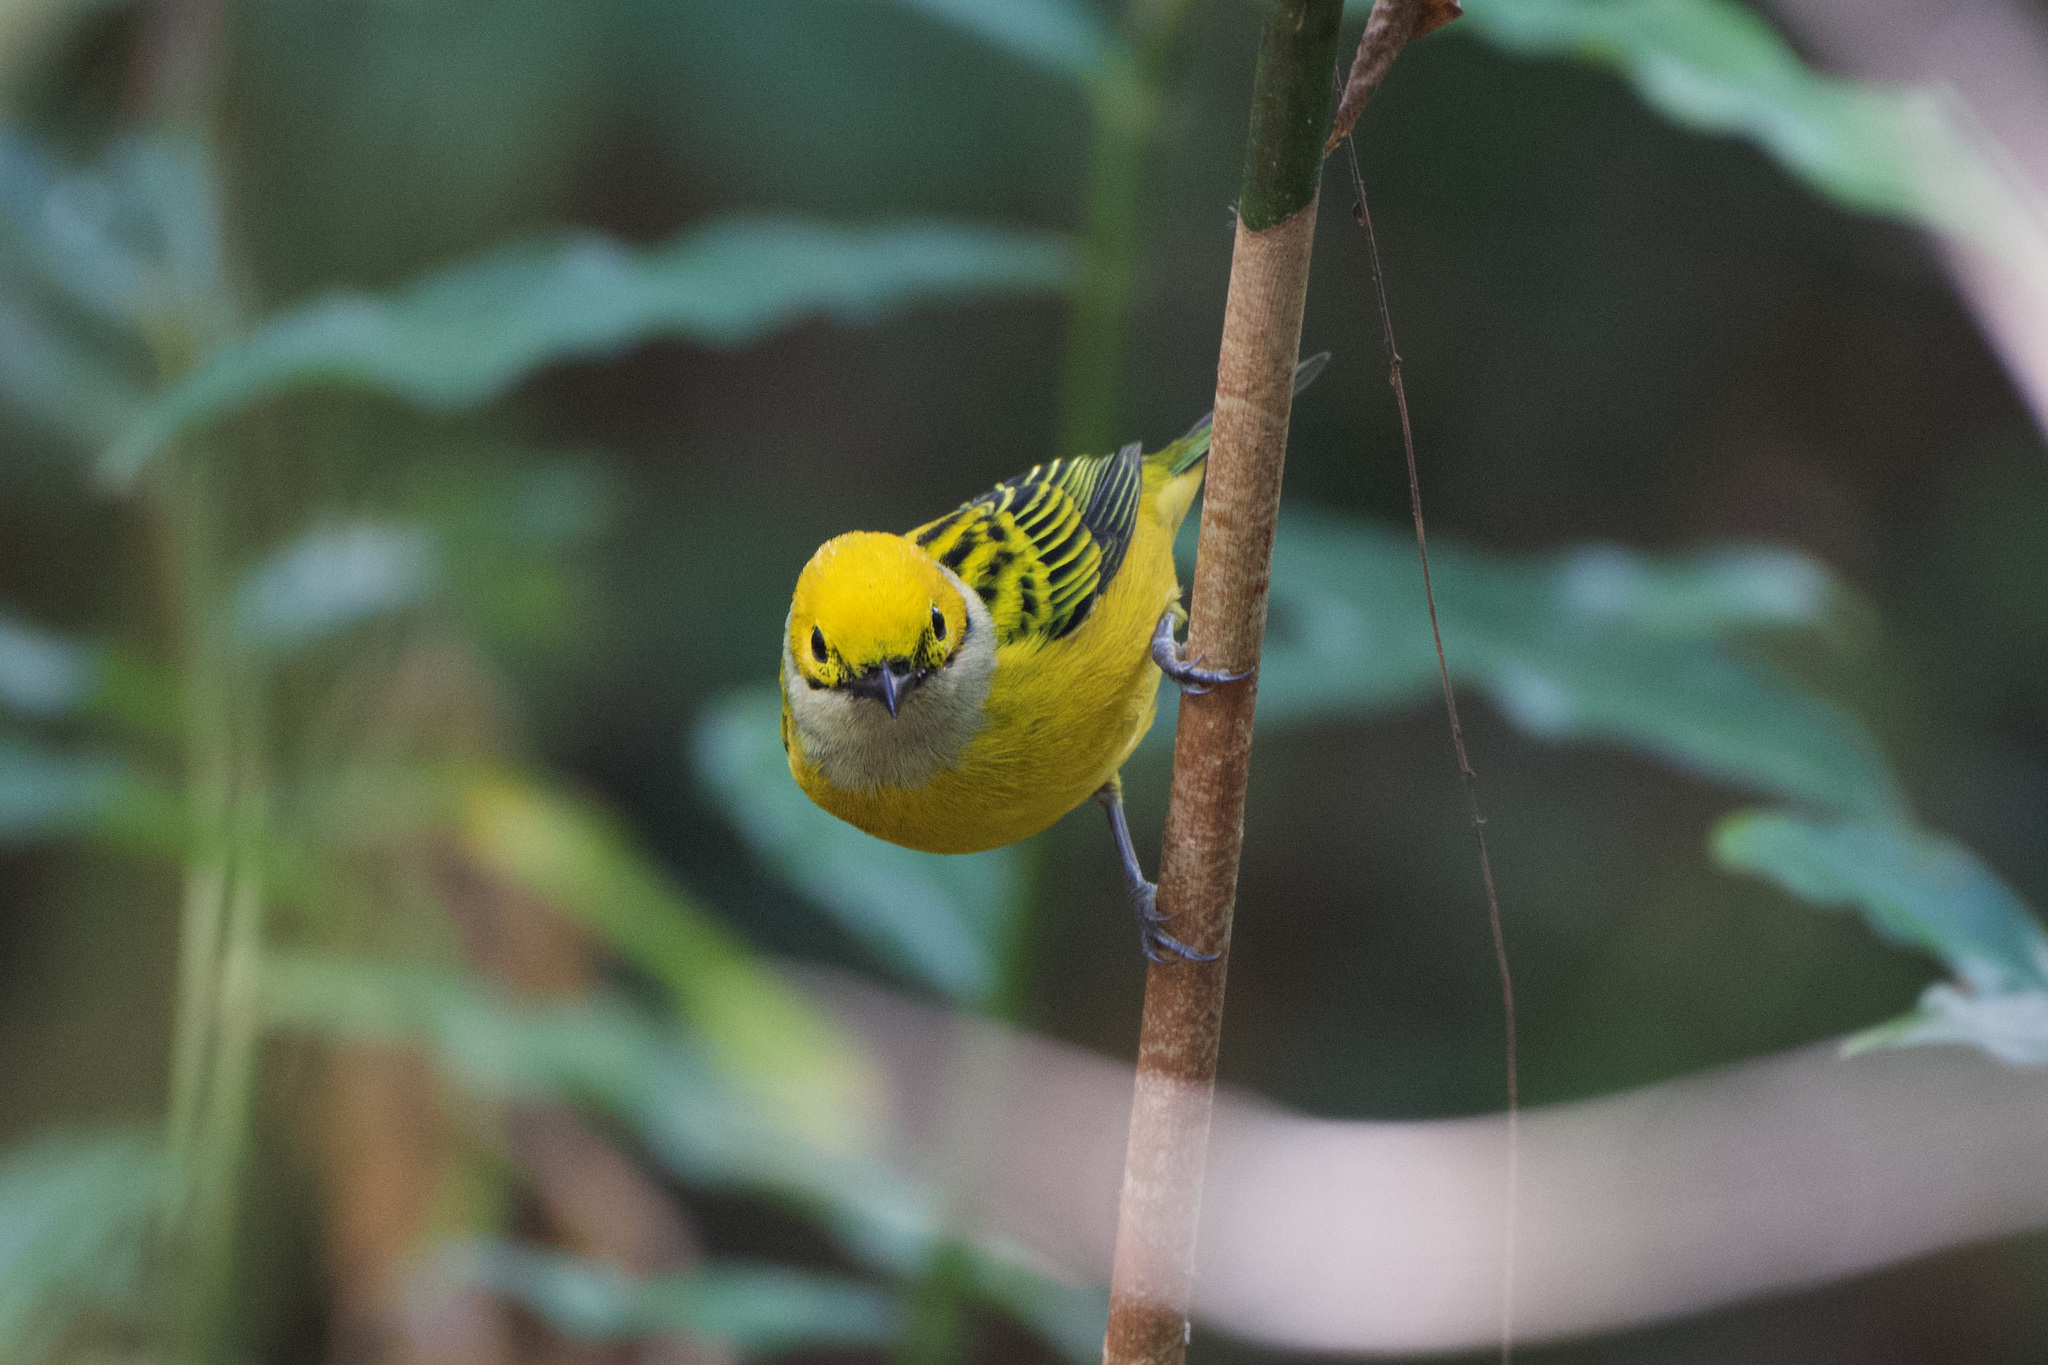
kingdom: Animalia
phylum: Chordata
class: Aves
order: Passeriformes
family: Thraupidae
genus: Tangara
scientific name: Tangara icterocephala
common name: Silver-throated tanager
